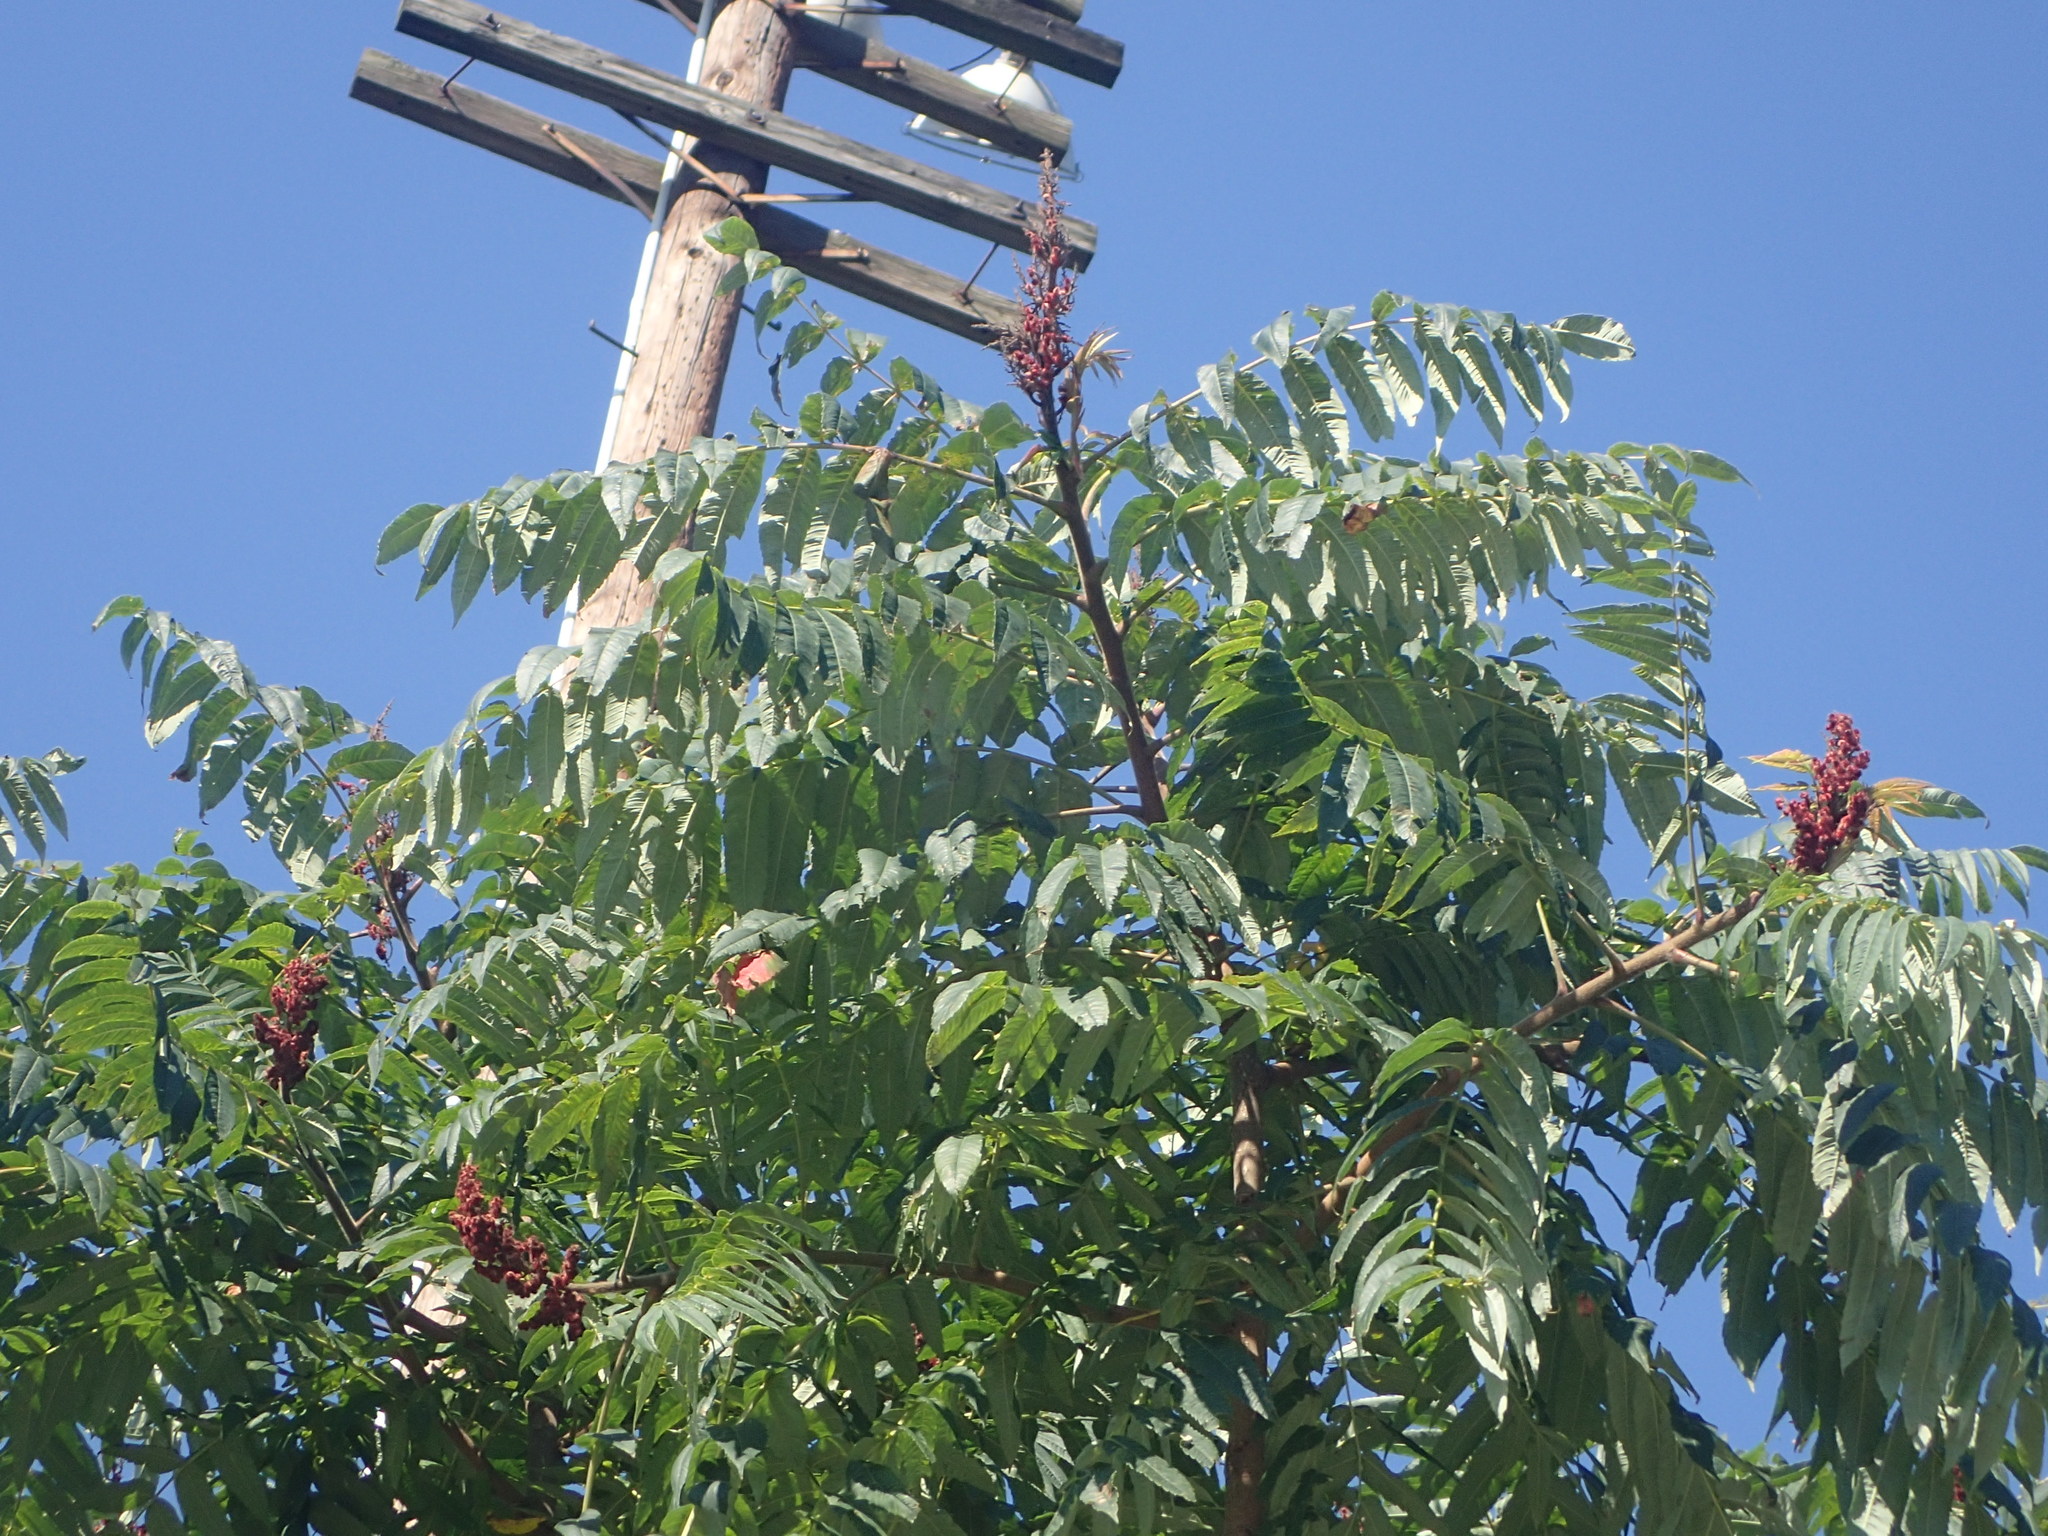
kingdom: Plantae
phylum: Tracheophyta
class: Magnoliopsida
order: Sapindales
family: Anacardiaceae
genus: Rhus
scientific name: Rhus typhina
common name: Staghorn sumac
